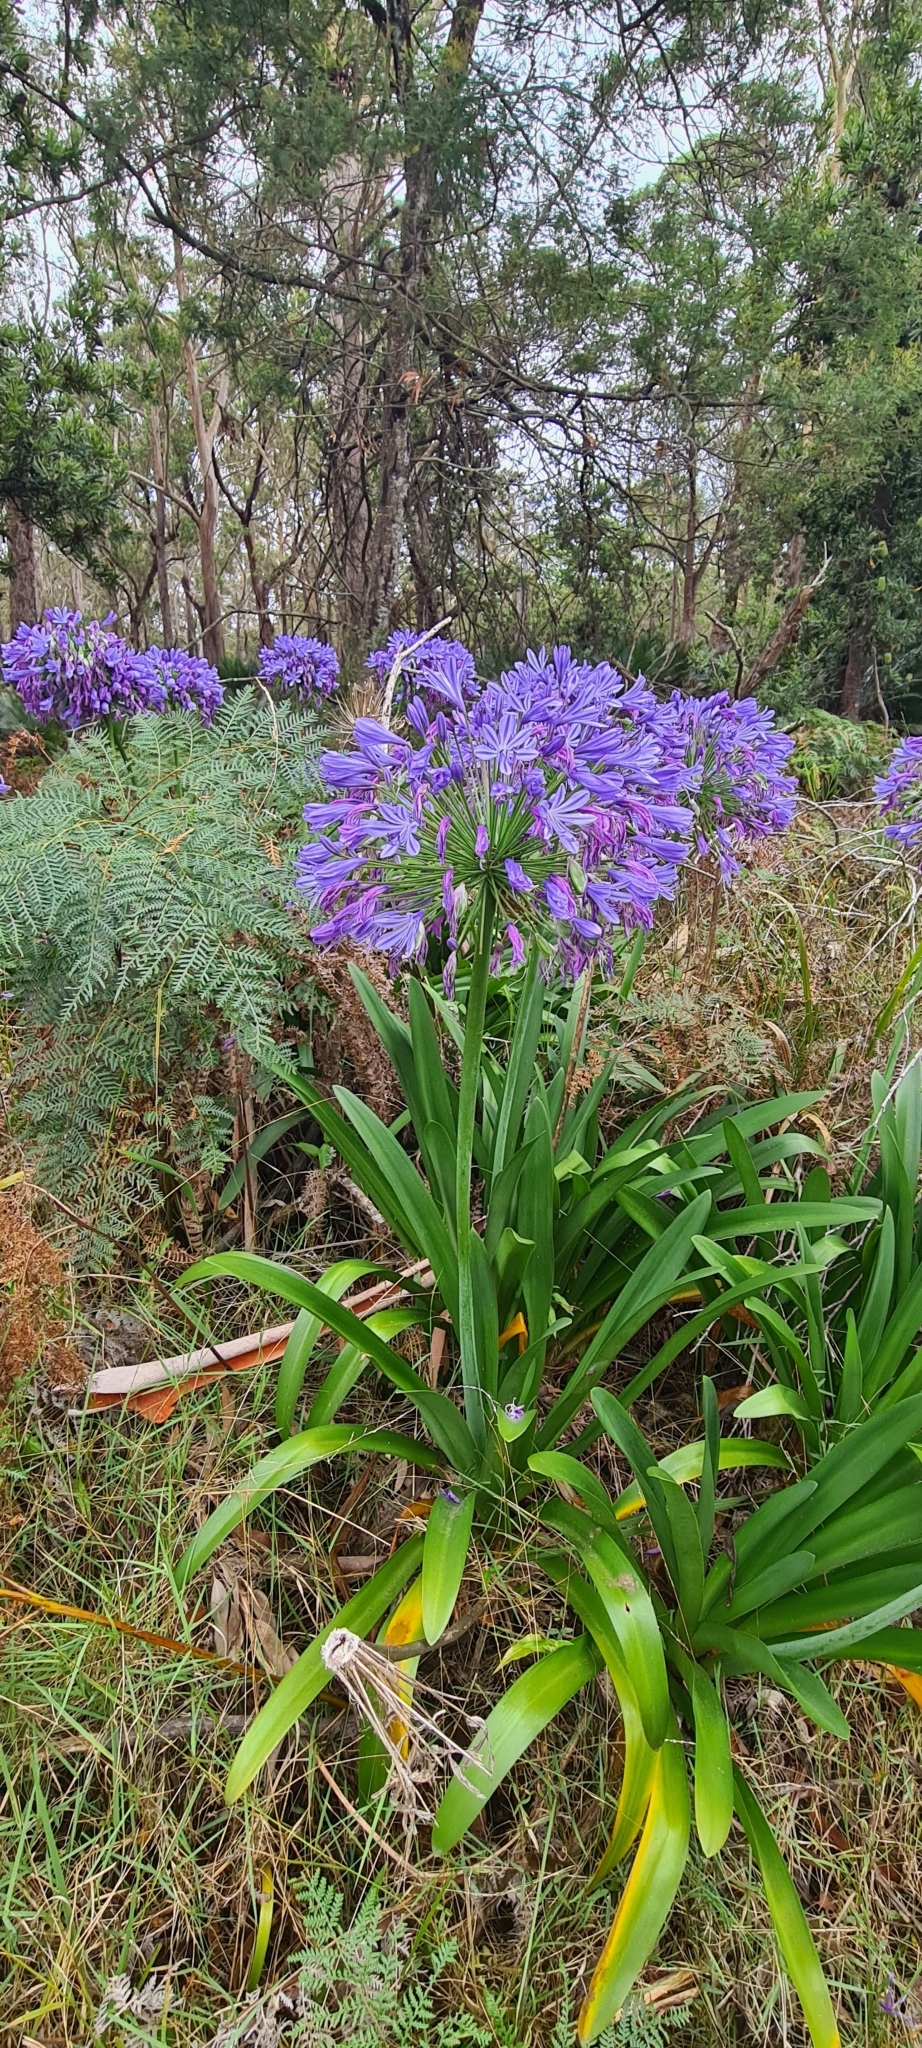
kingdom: Plantae
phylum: Tracheophyta
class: Liliopsida
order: Asparagales
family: Amaryllidaceae
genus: Agapanthus
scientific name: Agapanthus praecox
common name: African-lily
